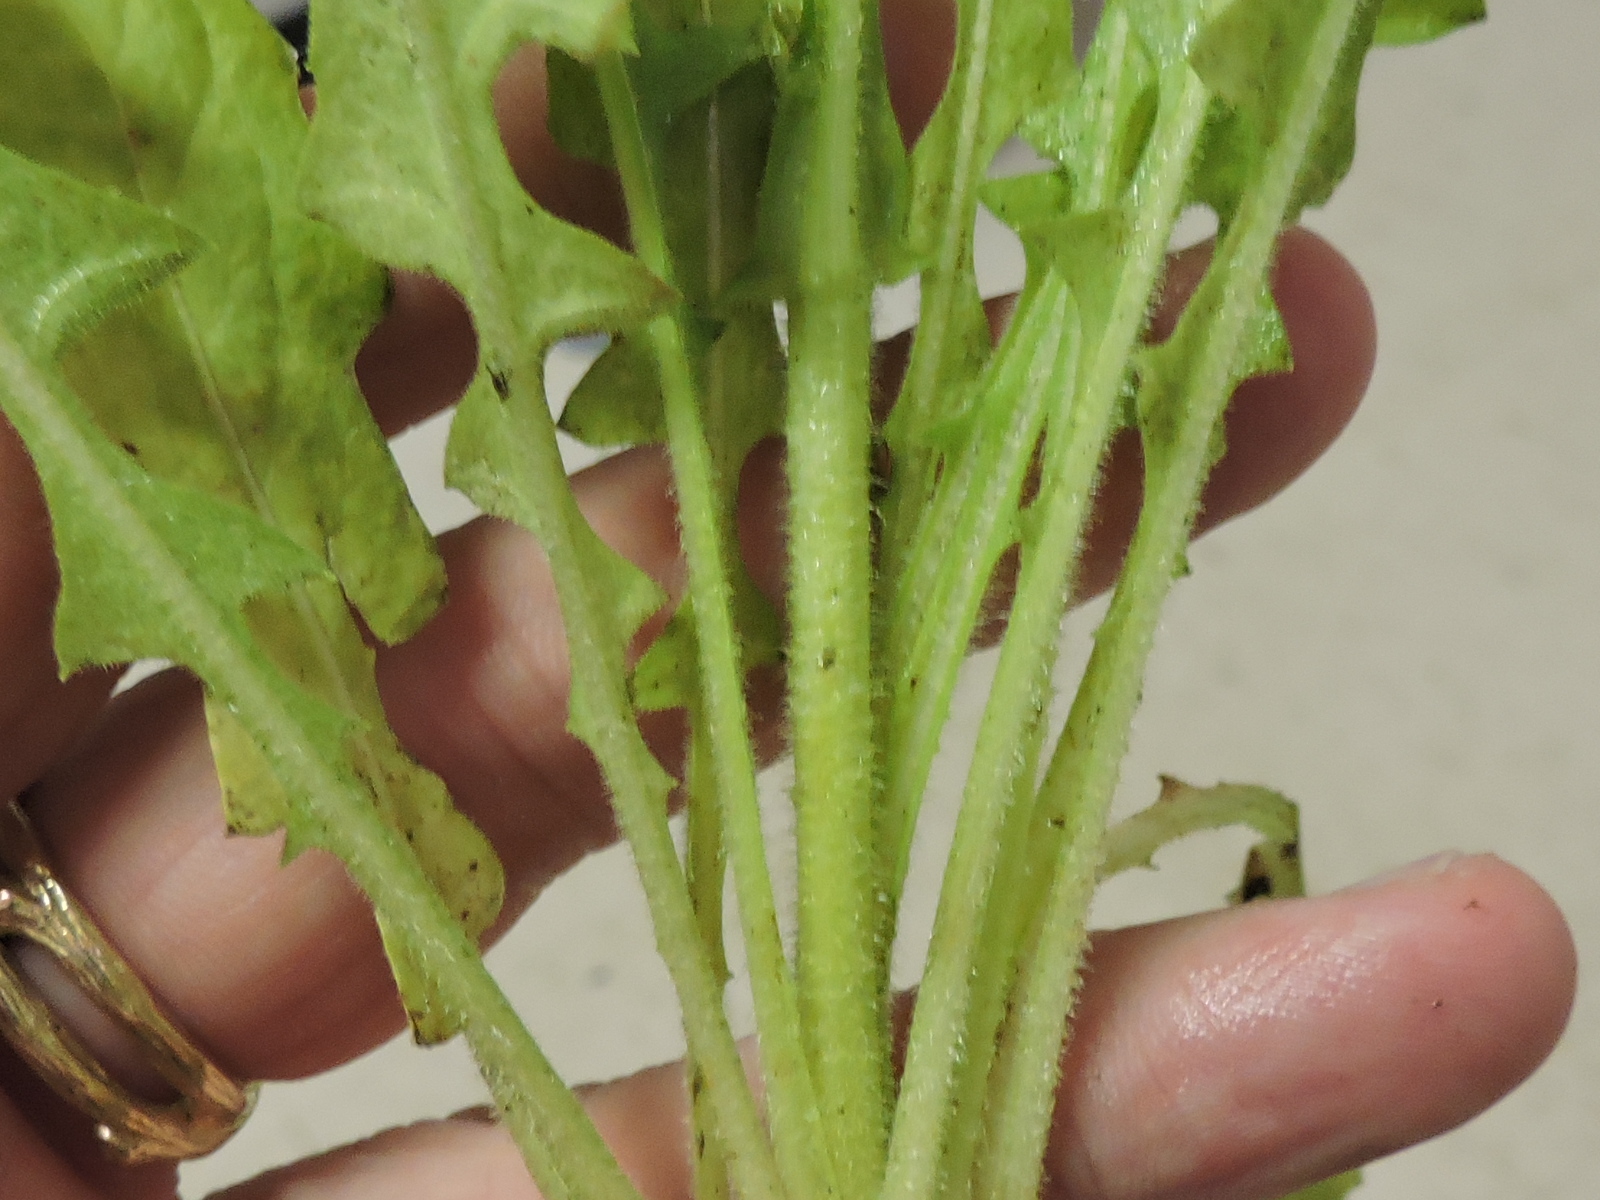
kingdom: Plantae
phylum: Tracheophyta
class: Magnoliopsida
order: Asterales
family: Asteraceae
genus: Crepis
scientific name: Crepis pulchra
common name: Hawk's-beard
